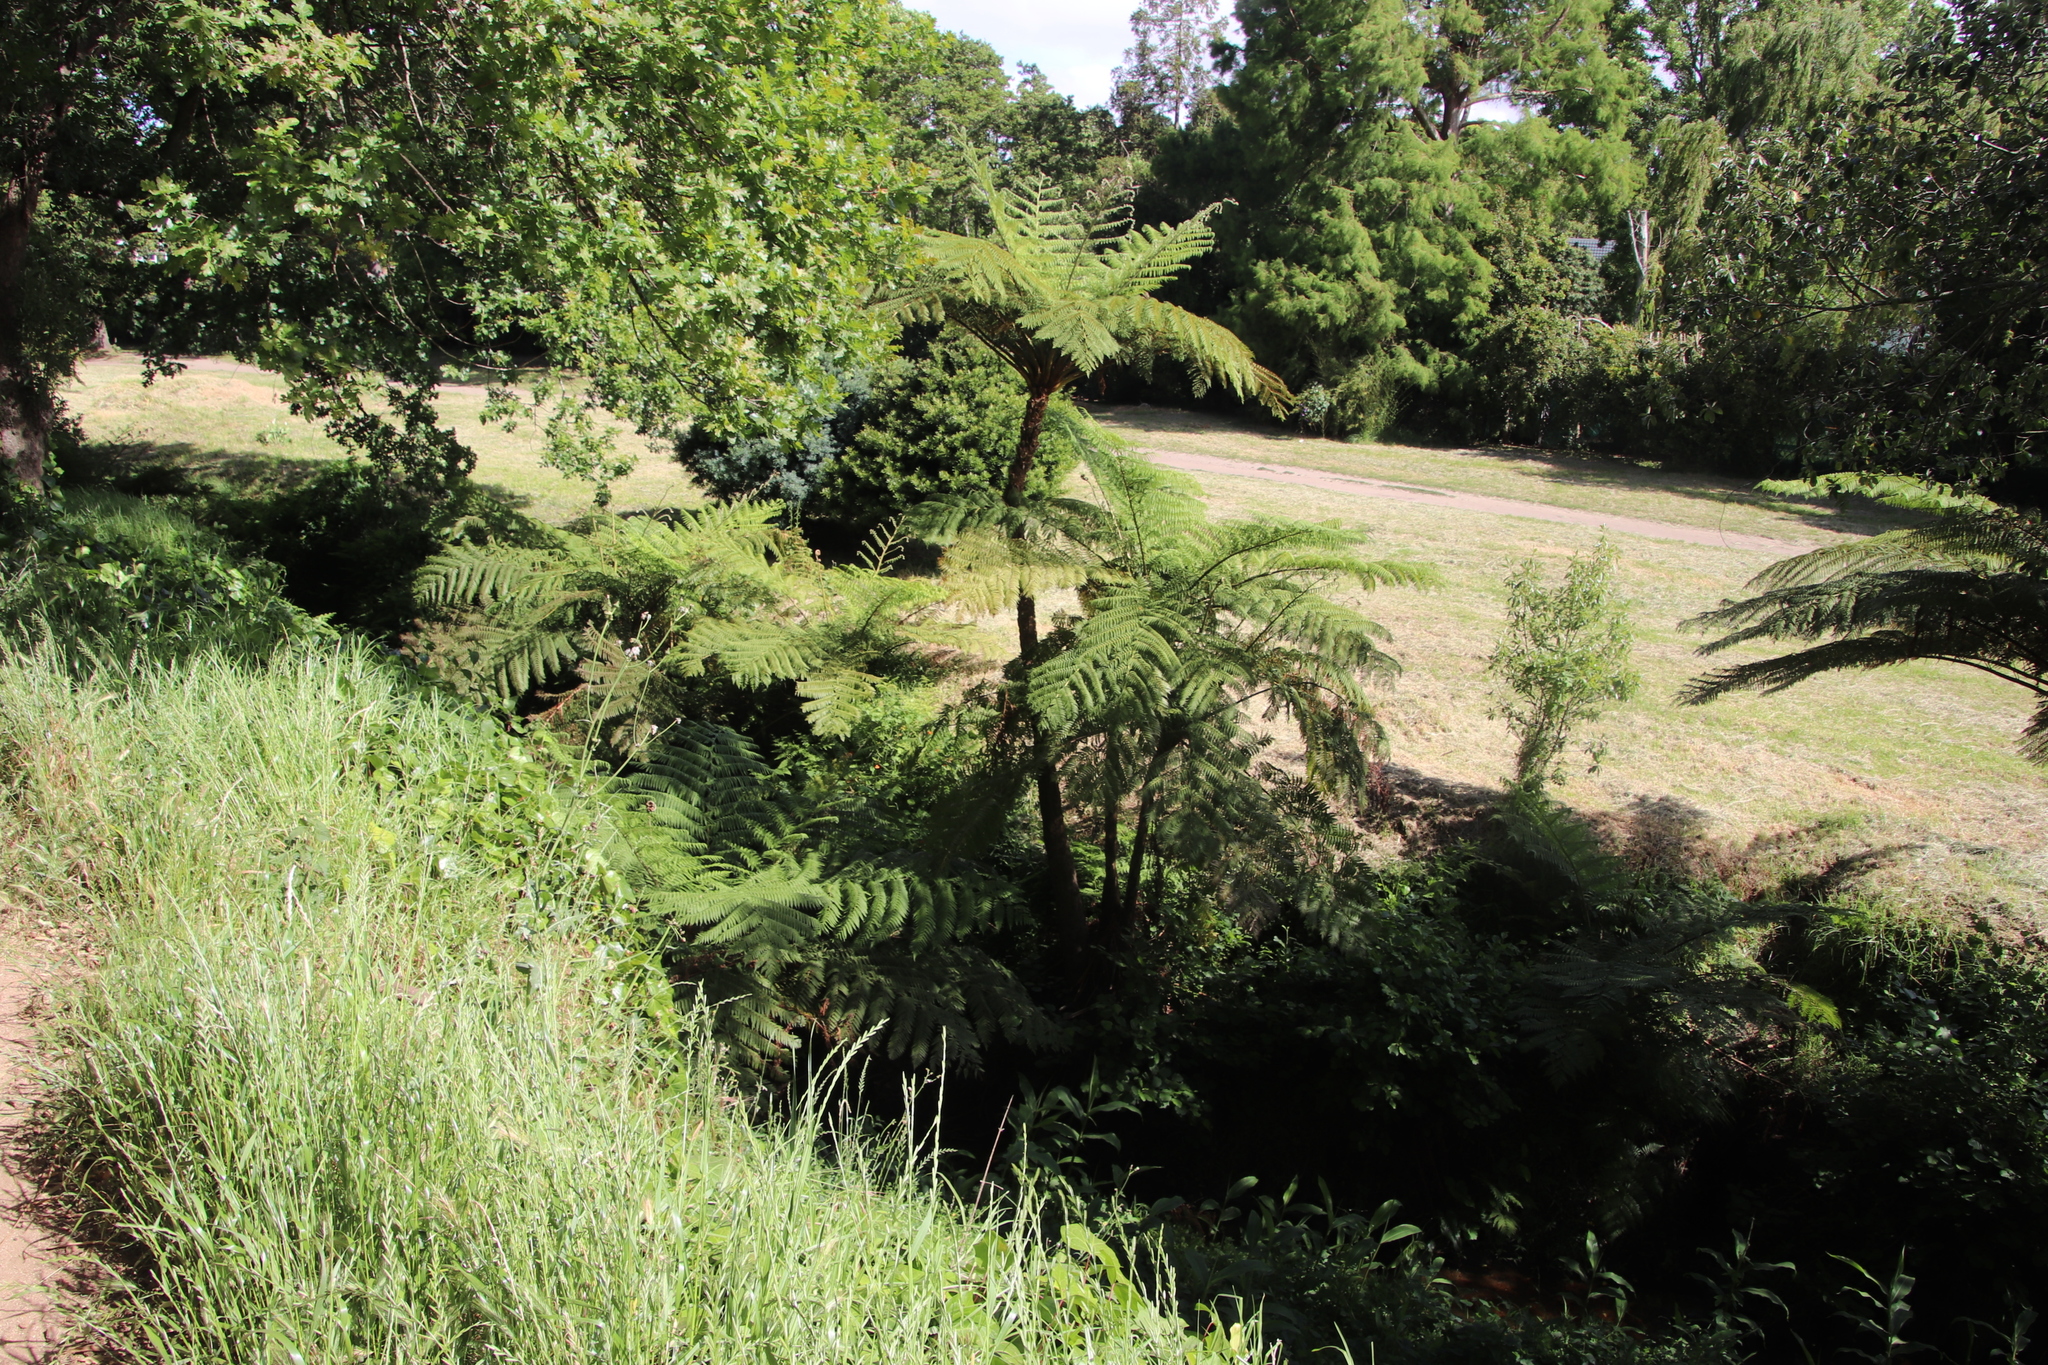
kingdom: Plantae
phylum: Tracheophyta
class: Polypodiopsida
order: Cyatheales
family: Cyatheaceae
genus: Sphaeropteris
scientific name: Sphaeropteris cooperi
